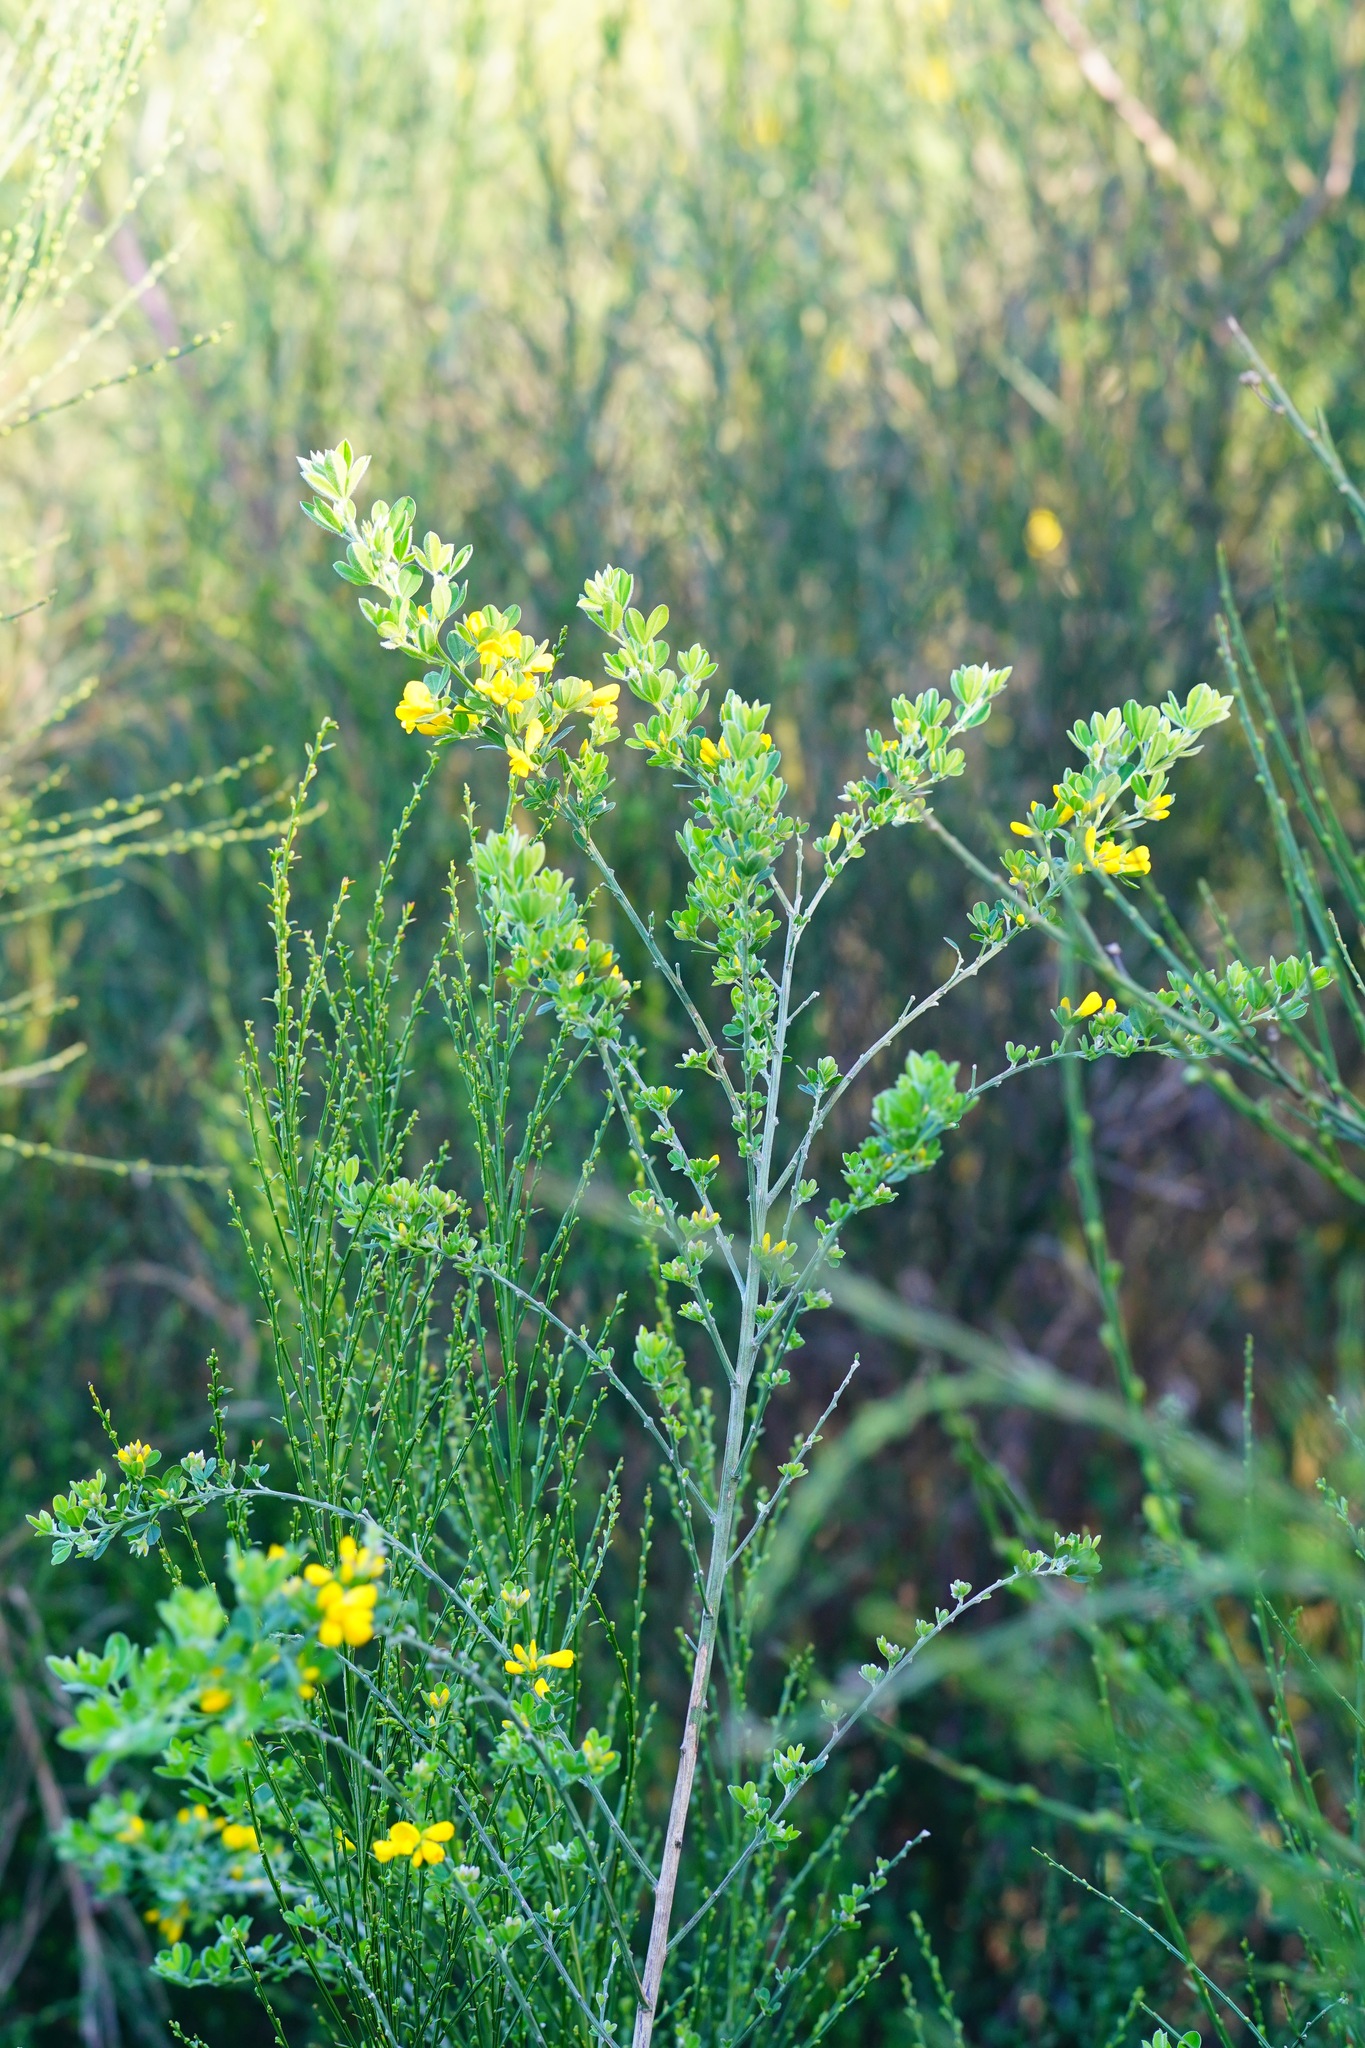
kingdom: Plantae
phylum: Tracheophyta
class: Magnoliopsida
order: Fabales
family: Fabaceae
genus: Genista
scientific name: Genista monspessulana
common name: Montpellier broom
